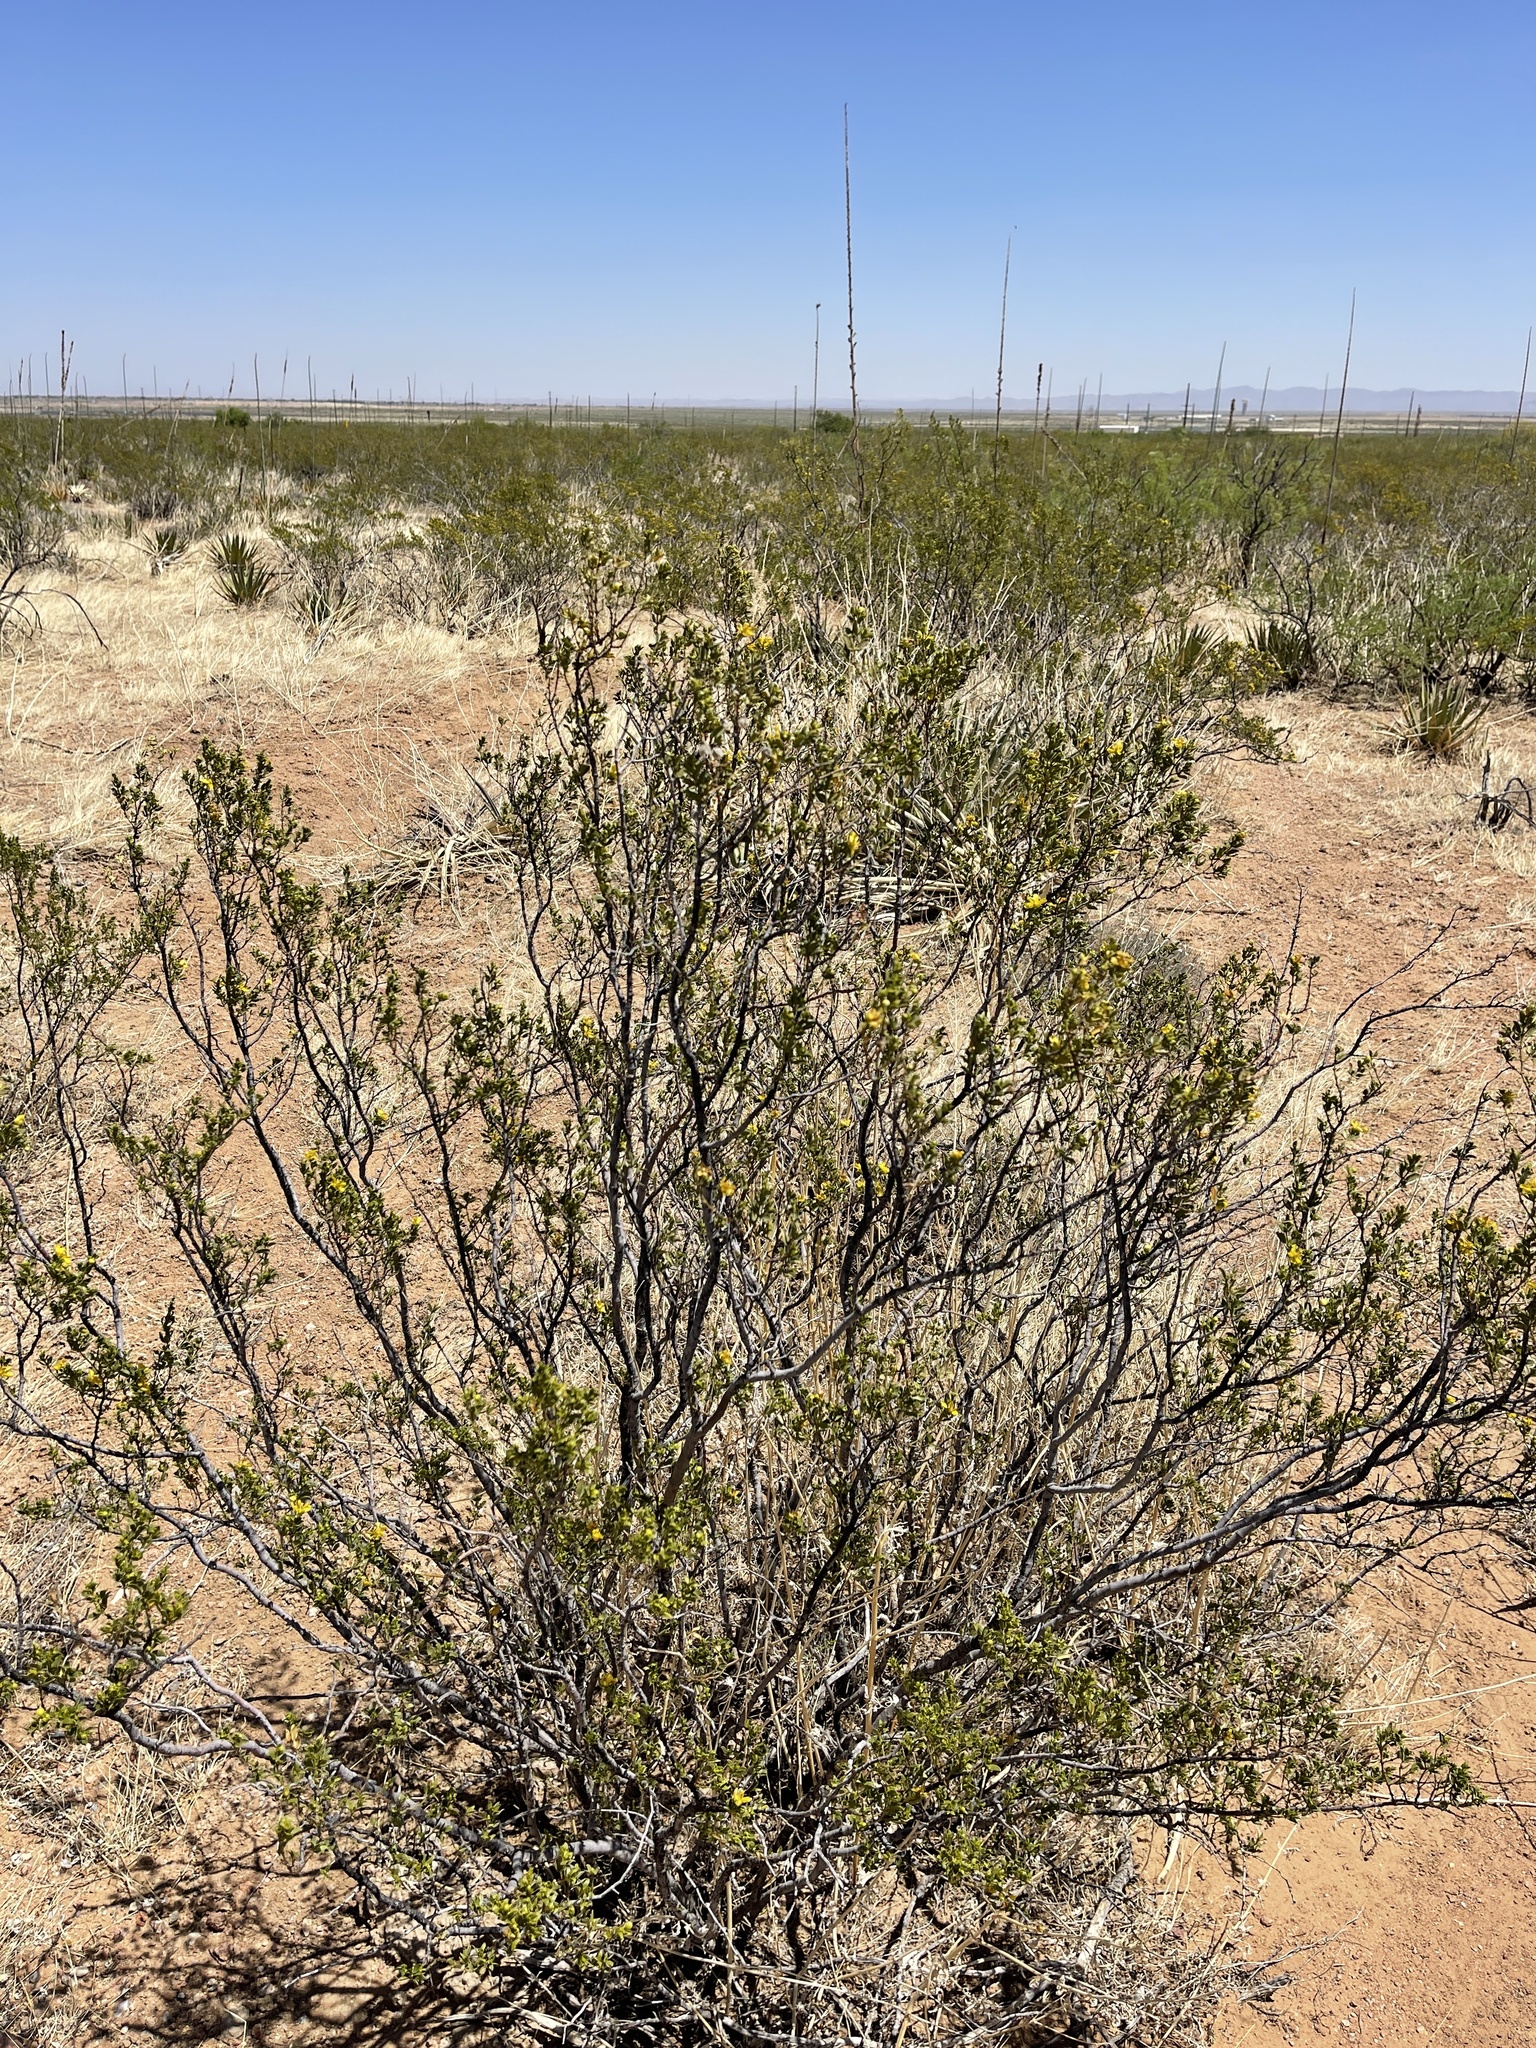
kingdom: Plantae
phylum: Tracheophyta
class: Magnoliopsida
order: Zygophyllales
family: Zygophyllaceae
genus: Larrea
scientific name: Larrea tridentata
